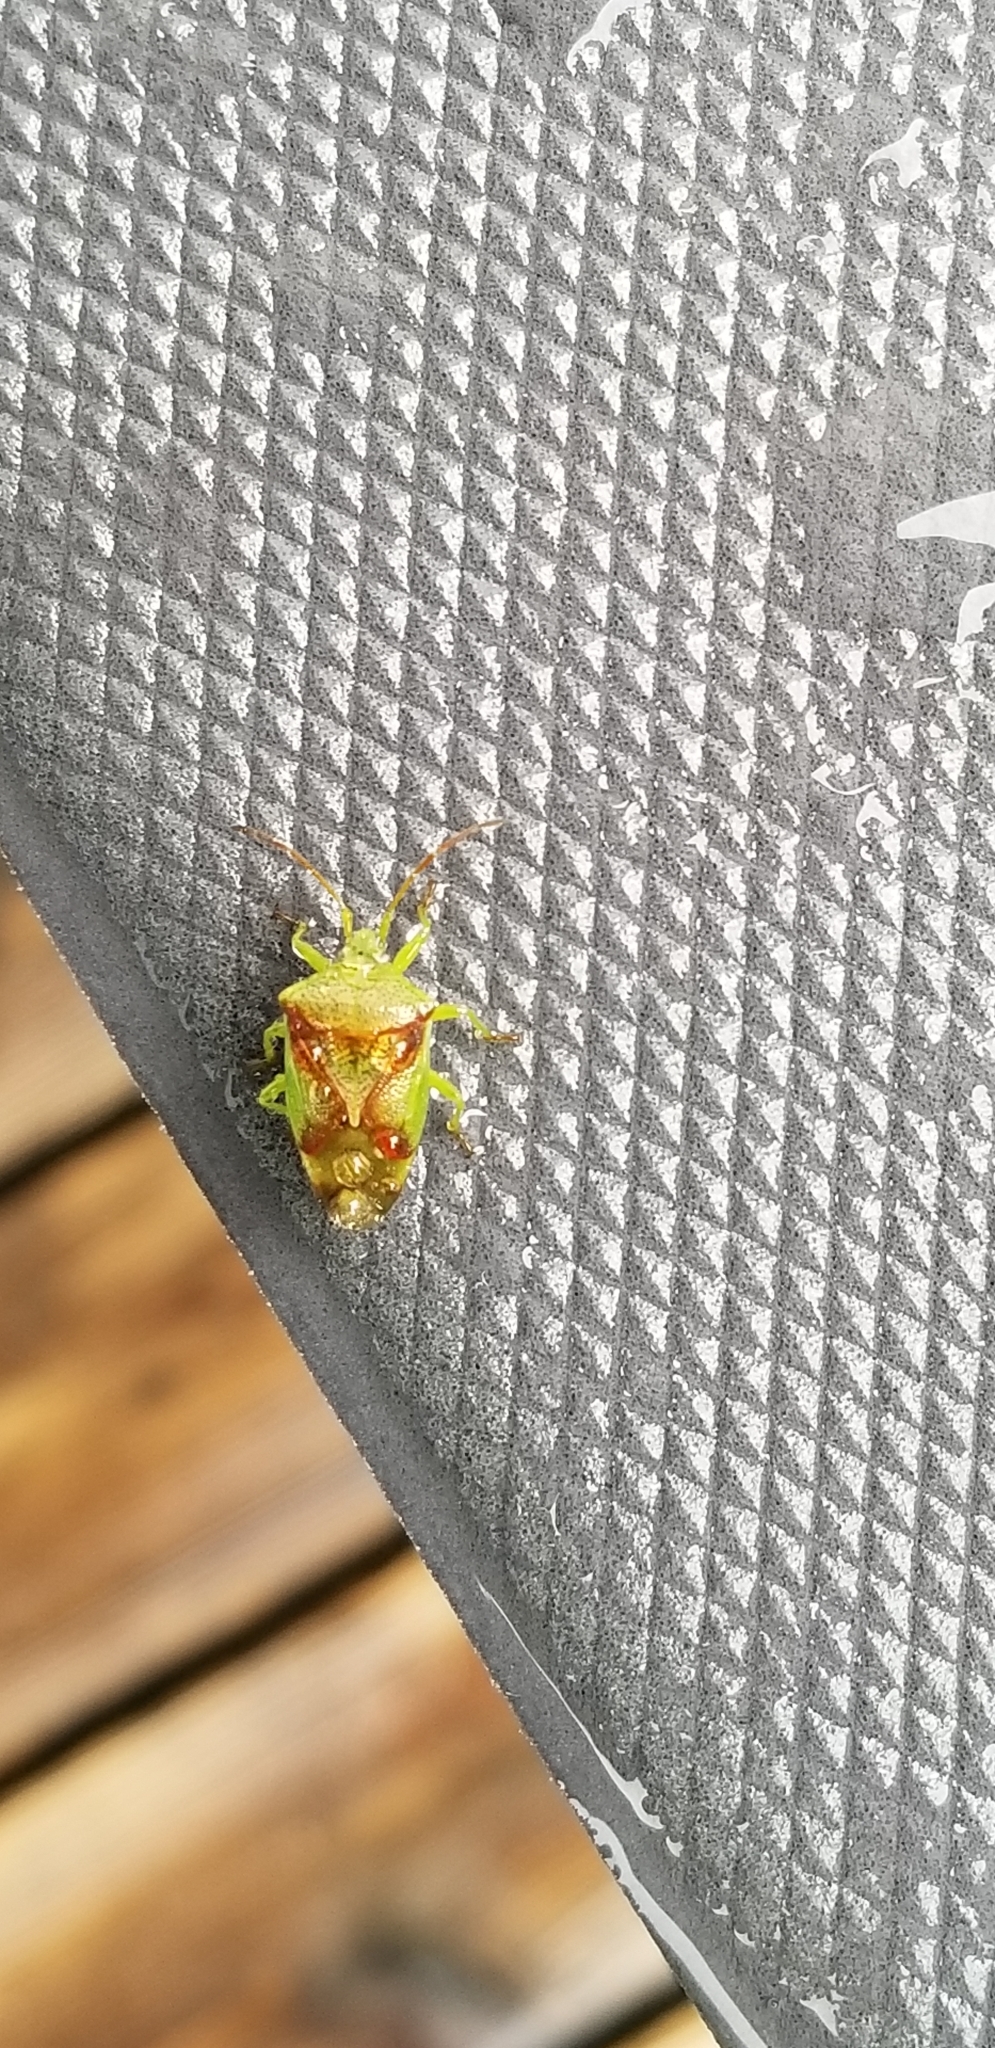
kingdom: Animalia
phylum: Arthropoda
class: Insecta
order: Hemiptera
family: Acanthosomatidae
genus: Elasmostethus
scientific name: Elasmostethus cruciatus
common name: Red-cross shield bug
